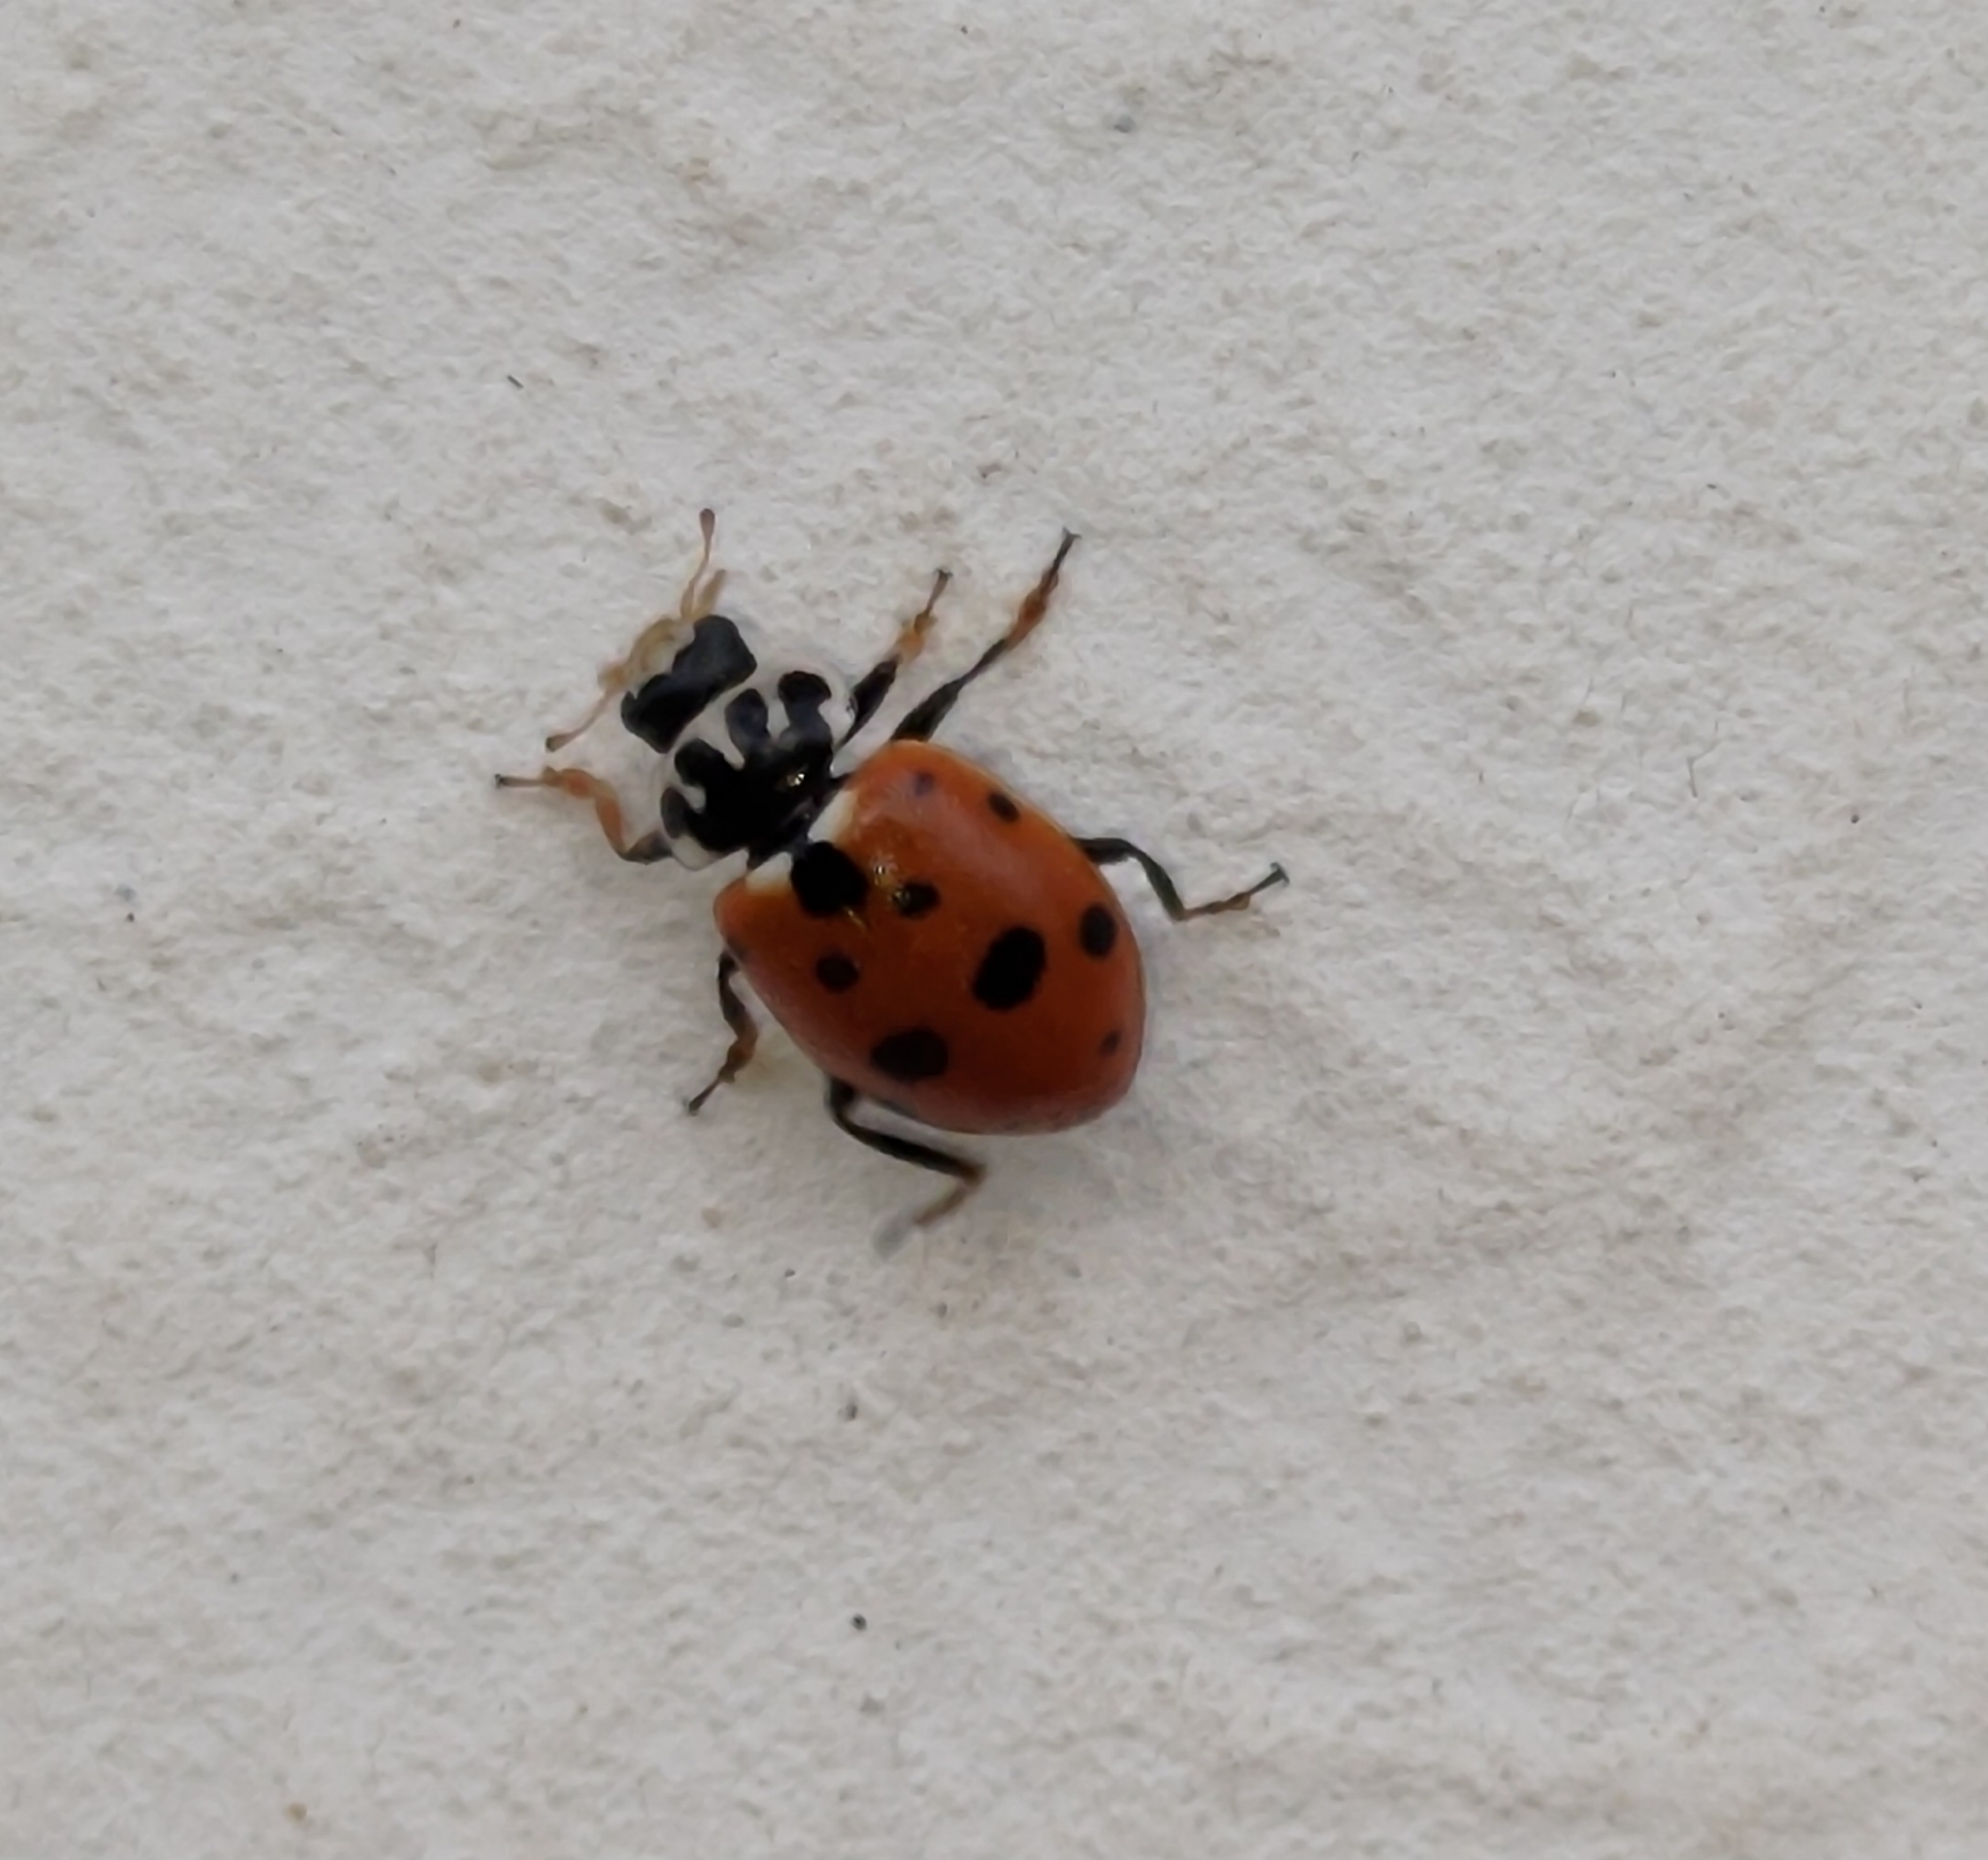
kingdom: Animalia
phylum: Arthropoda
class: Insecta
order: Coleoptera
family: Coccinellidae
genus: Hippodamia
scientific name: Hippodamia variegata
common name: Ladybird beetle
